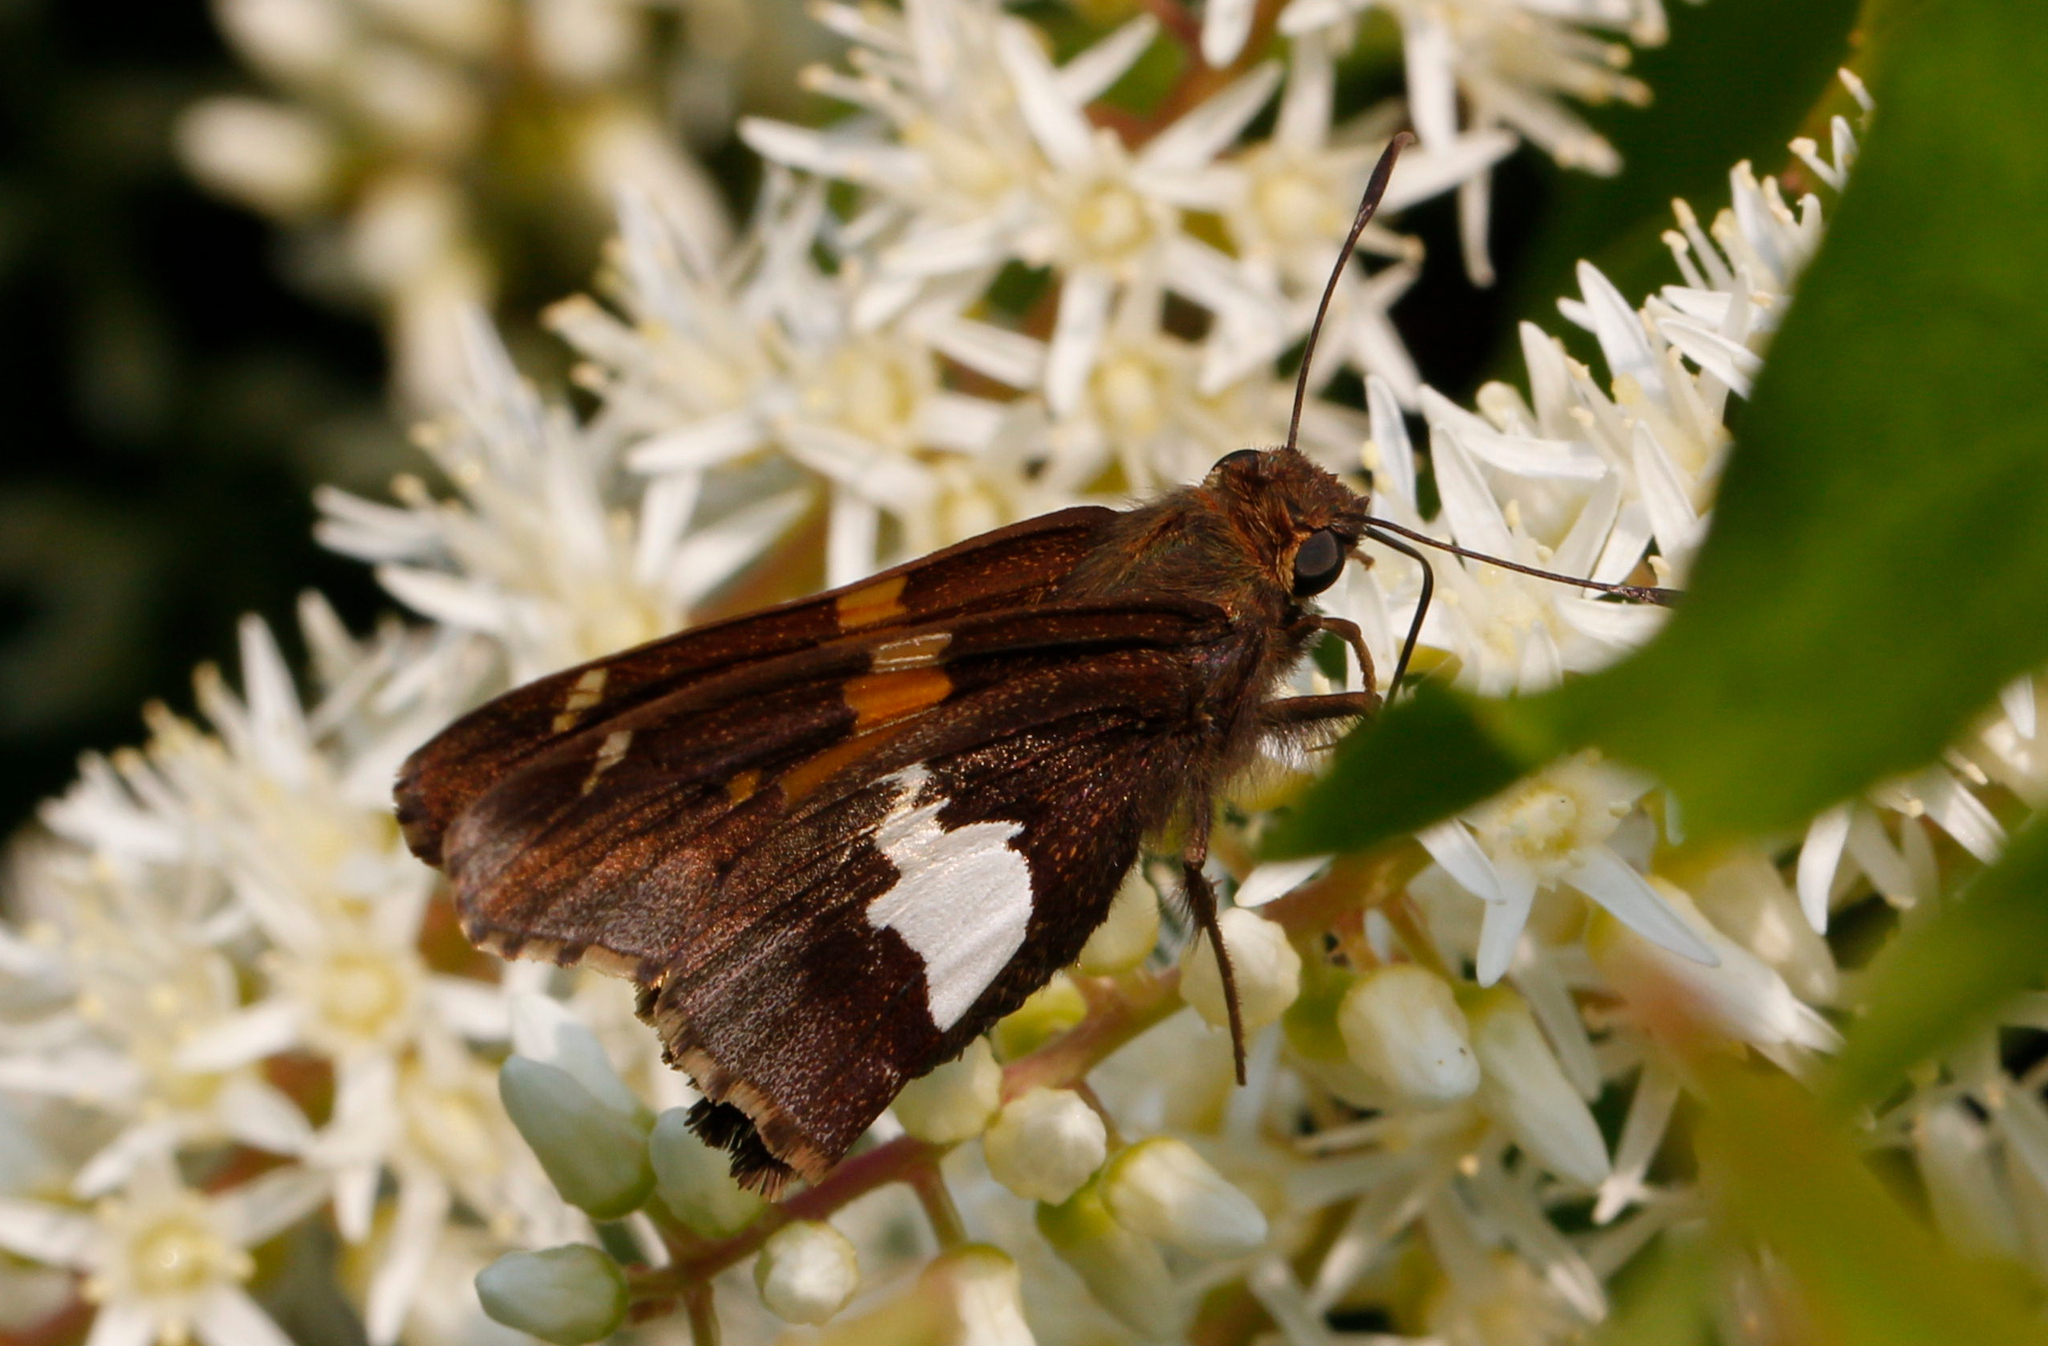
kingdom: Animalia
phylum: Arthropoda
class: Insecta
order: Lepidoptera
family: Hesperiidae
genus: Epargyreus
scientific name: Epargyreus clarus
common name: Silver-spotted skipper
